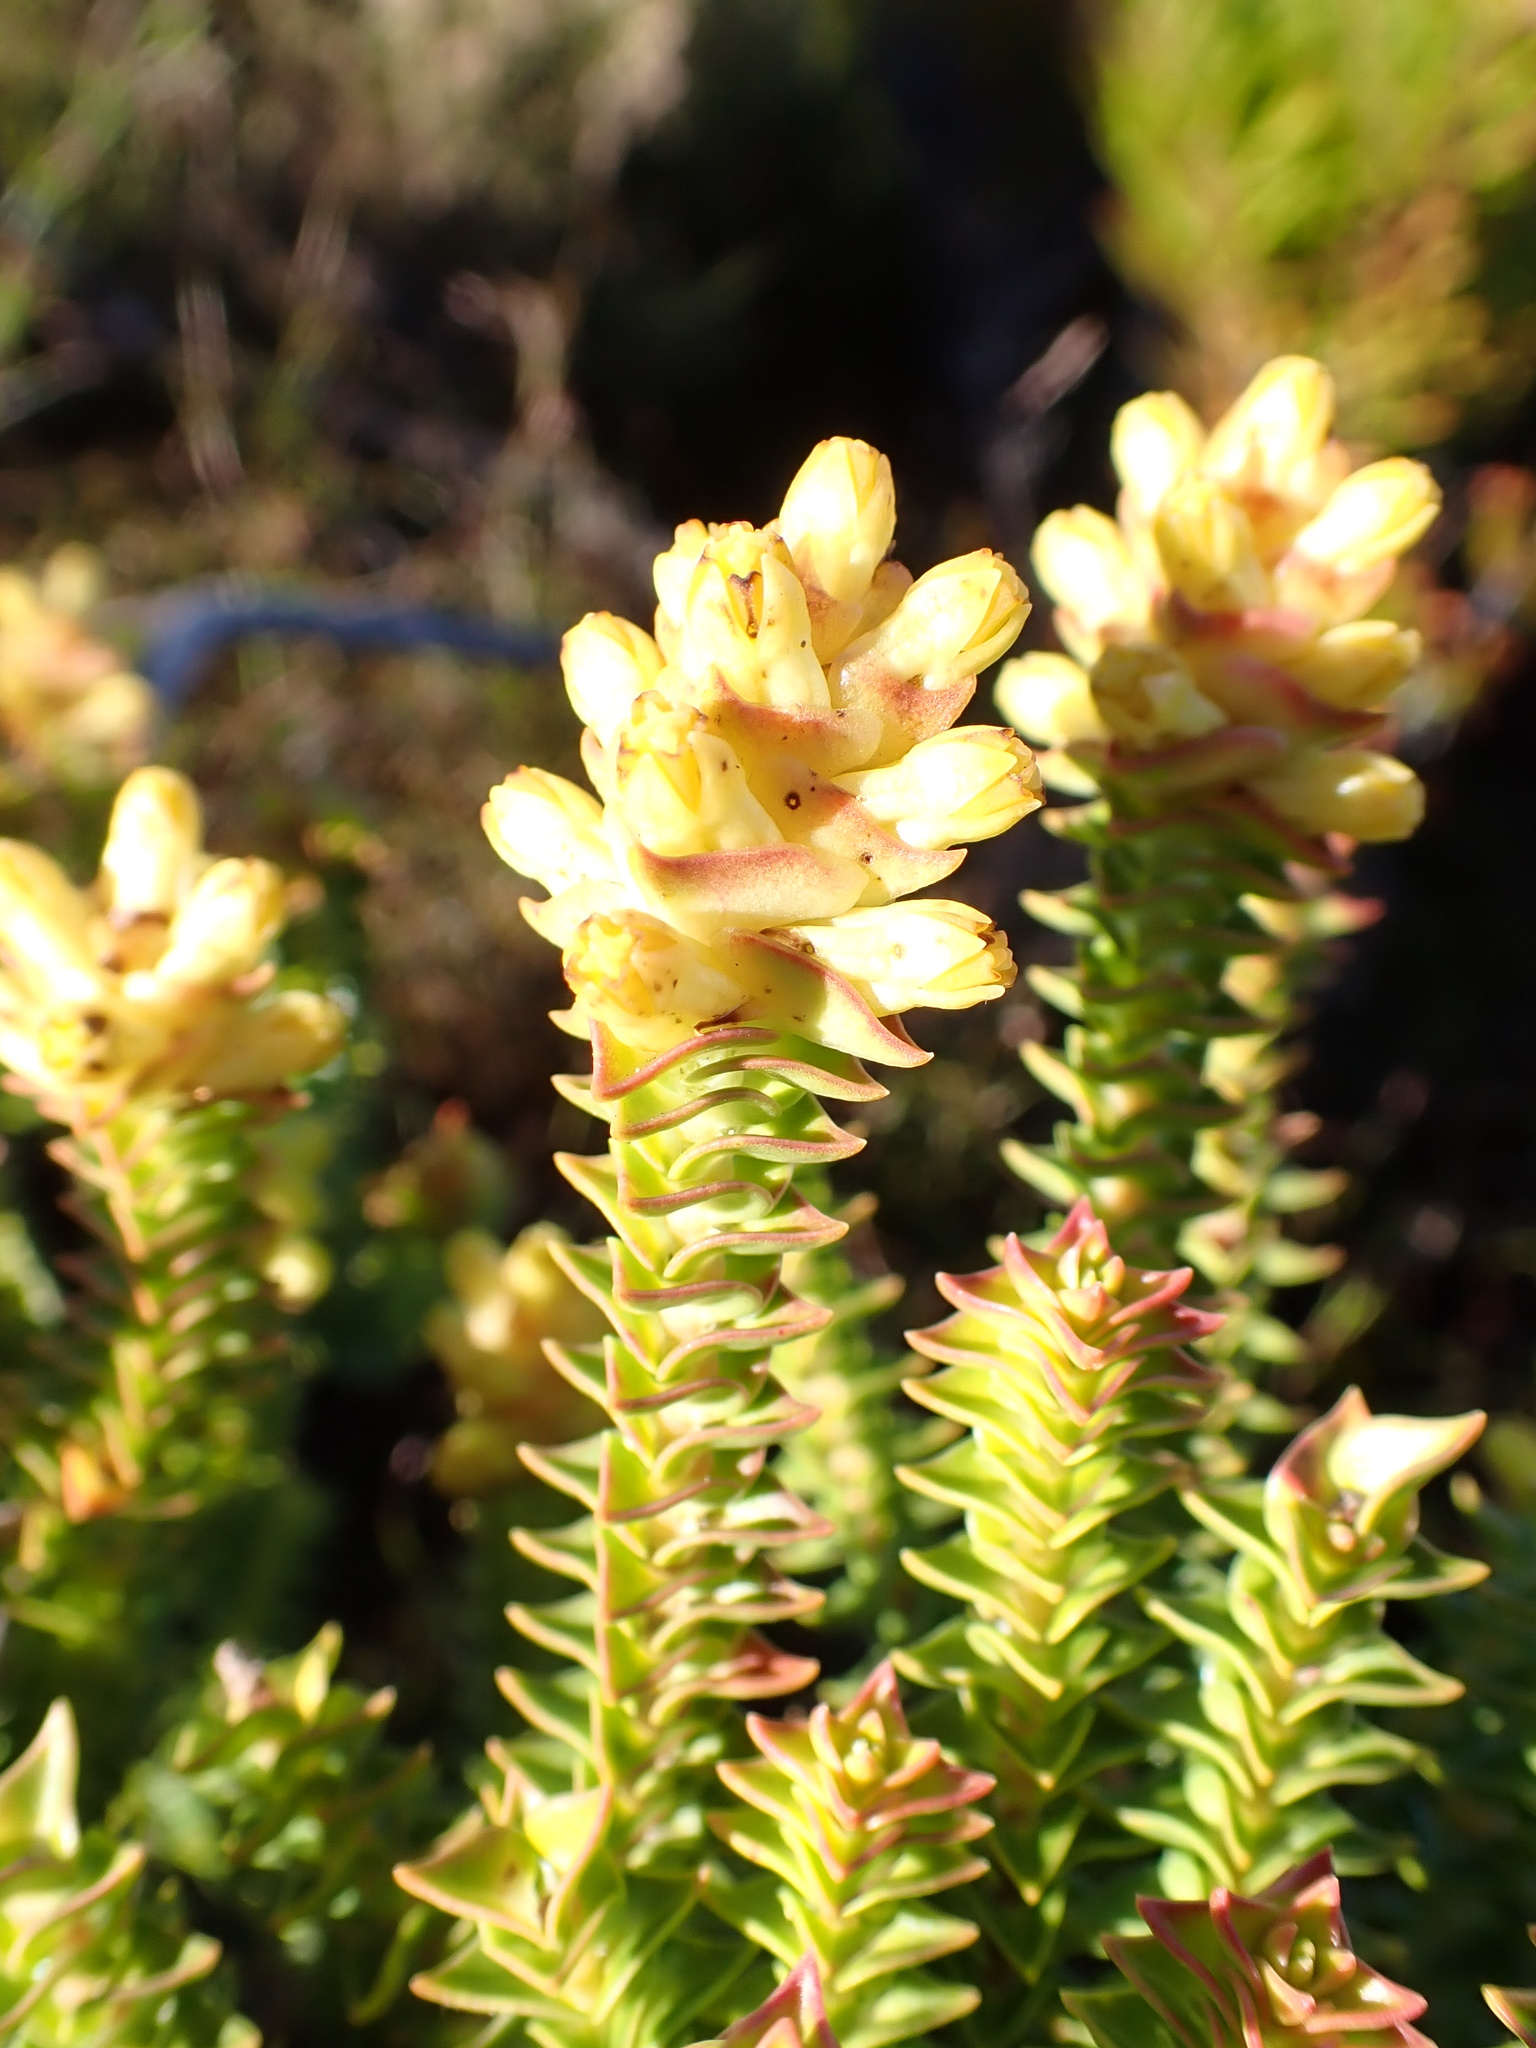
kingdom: Plantae
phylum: Tracheophyta
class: Magnoliopsida
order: Myrtales
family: Penaeaceae
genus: Penaea
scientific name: Penaea mucronata
